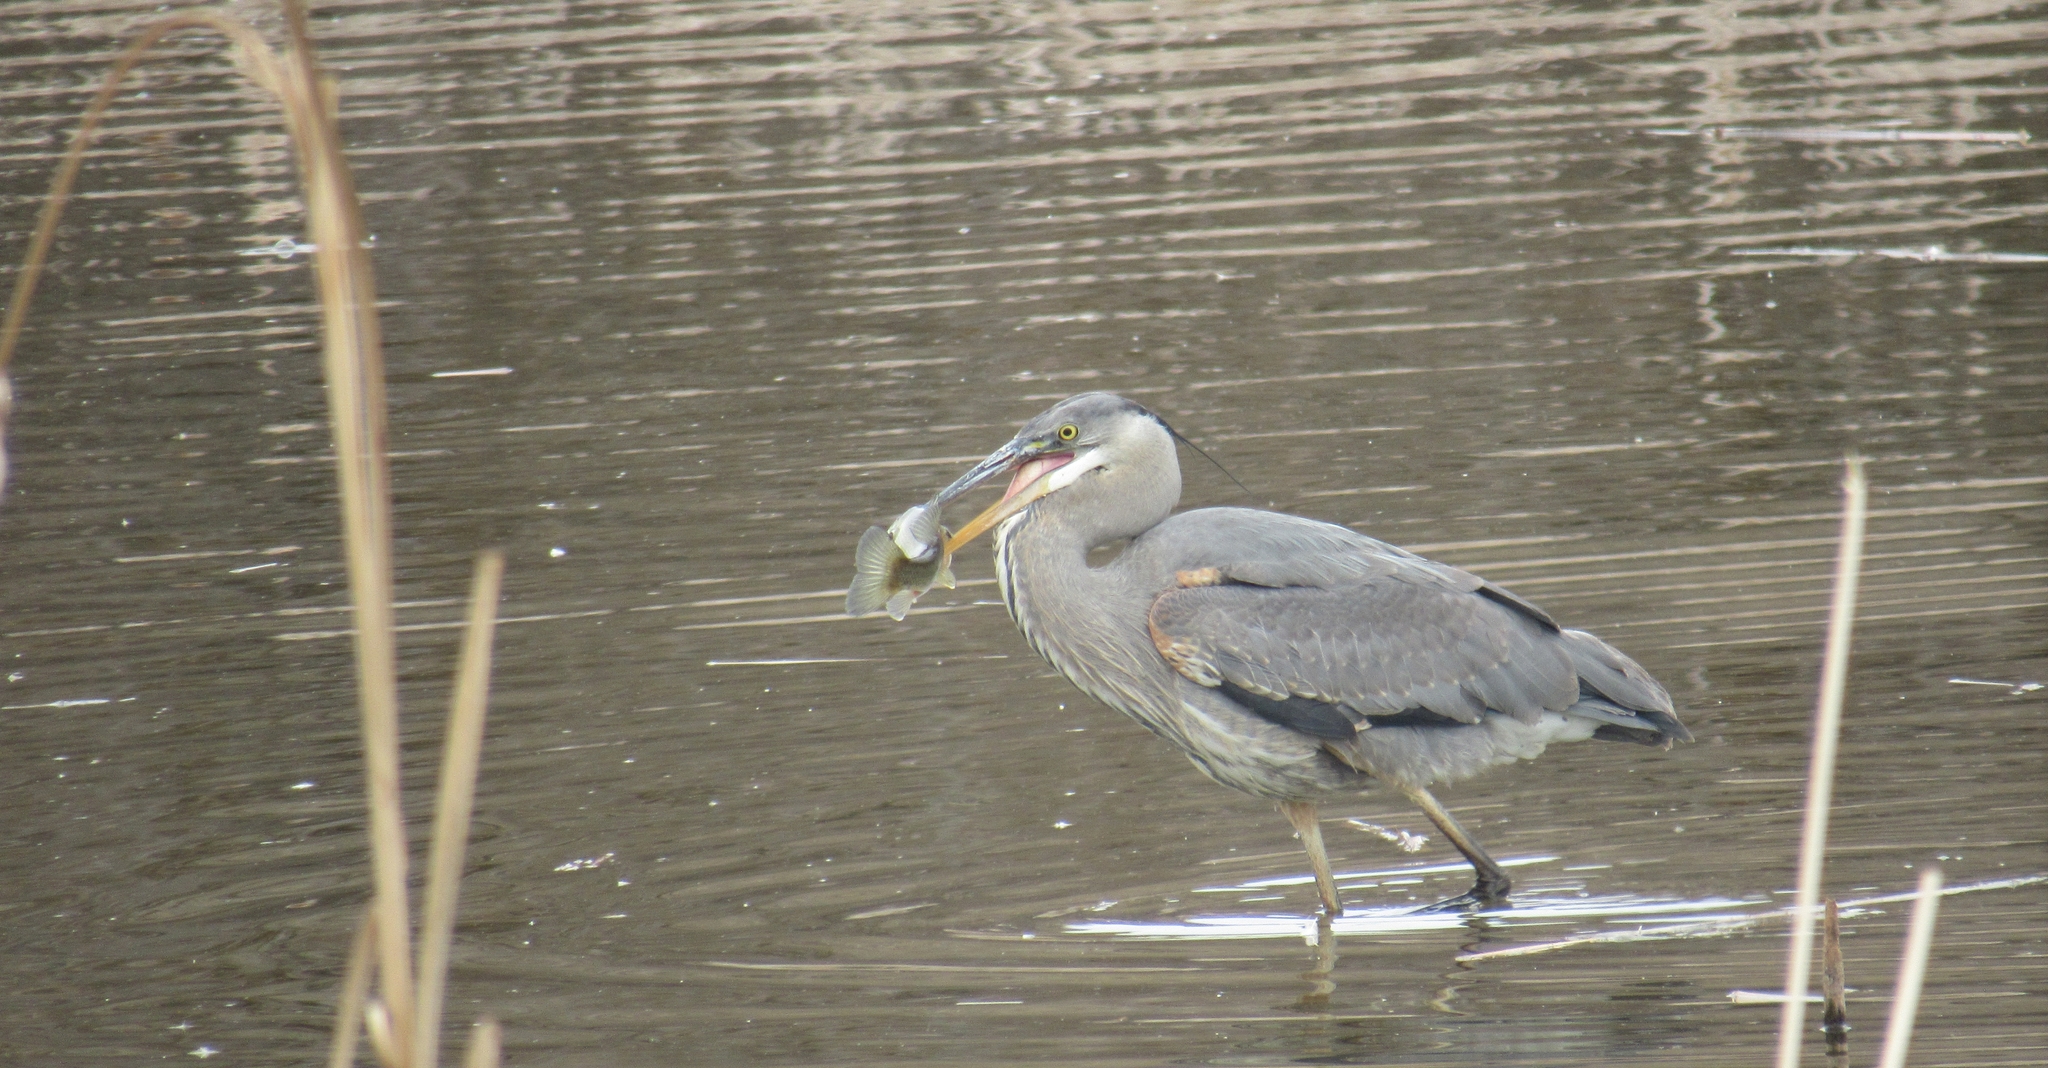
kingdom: Animalia
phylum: Chordata
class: Aves
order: Pelecaniformes
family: Ardeidae
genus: Ardea
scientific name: Ardea herodias
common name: Great blue heron
